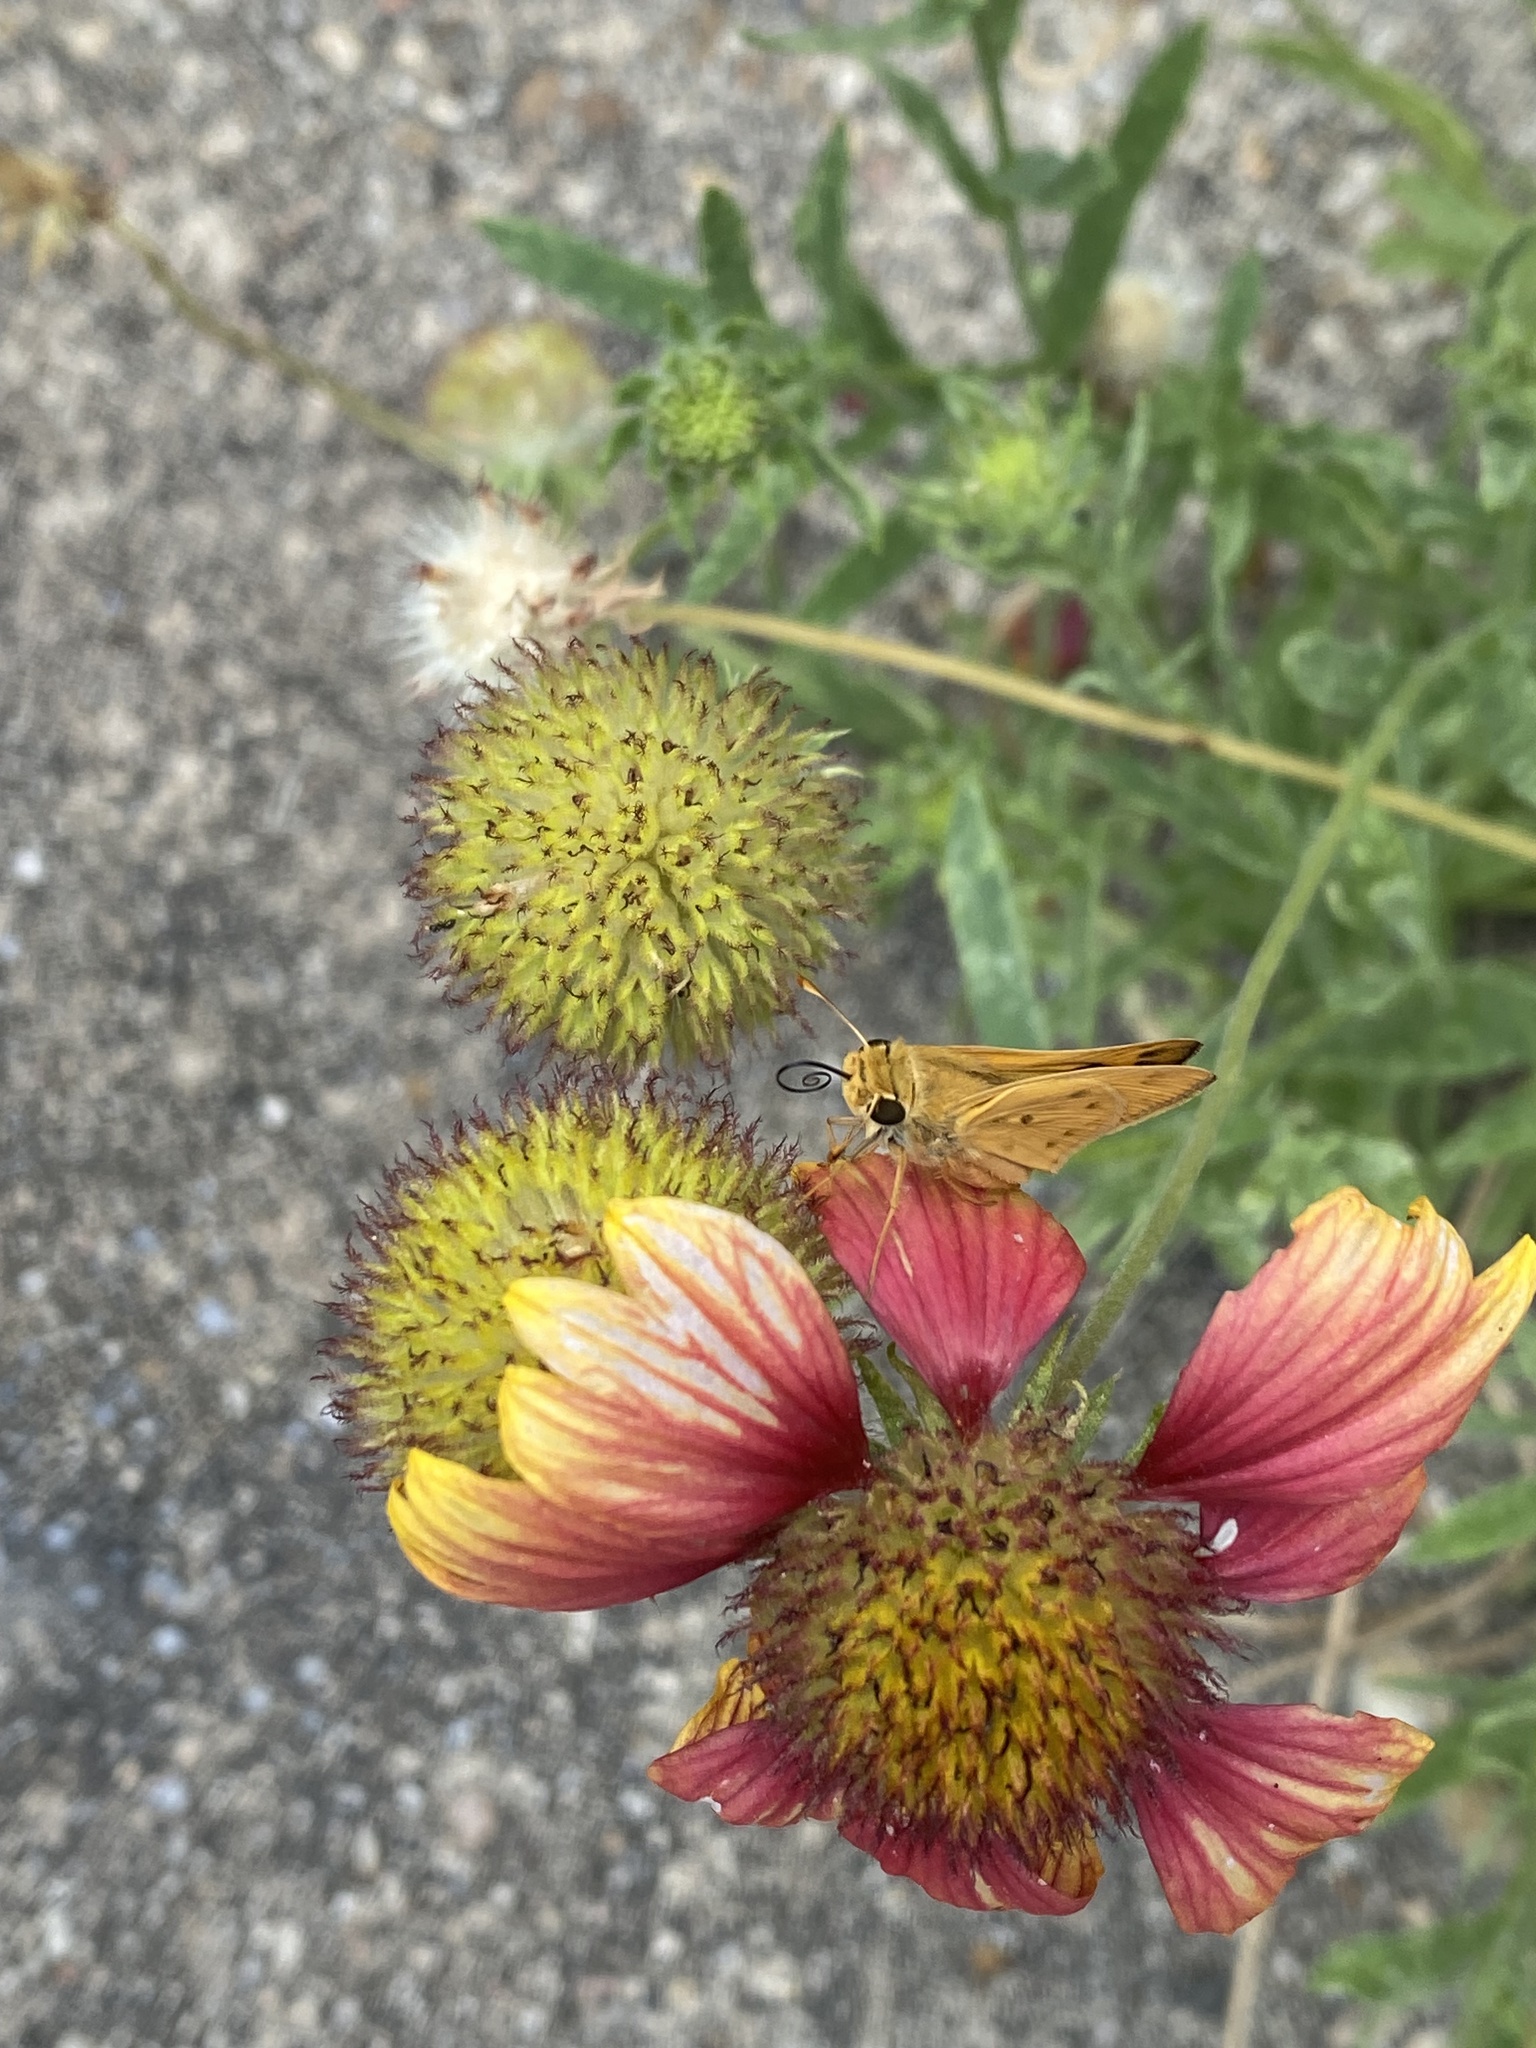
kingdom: Animalia
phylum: Arthropoda
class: Insecta
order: Lepidoptera
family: Hesperiidae
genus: Hylephila
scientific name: Hylephila phyleus
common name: Fiery skipper
